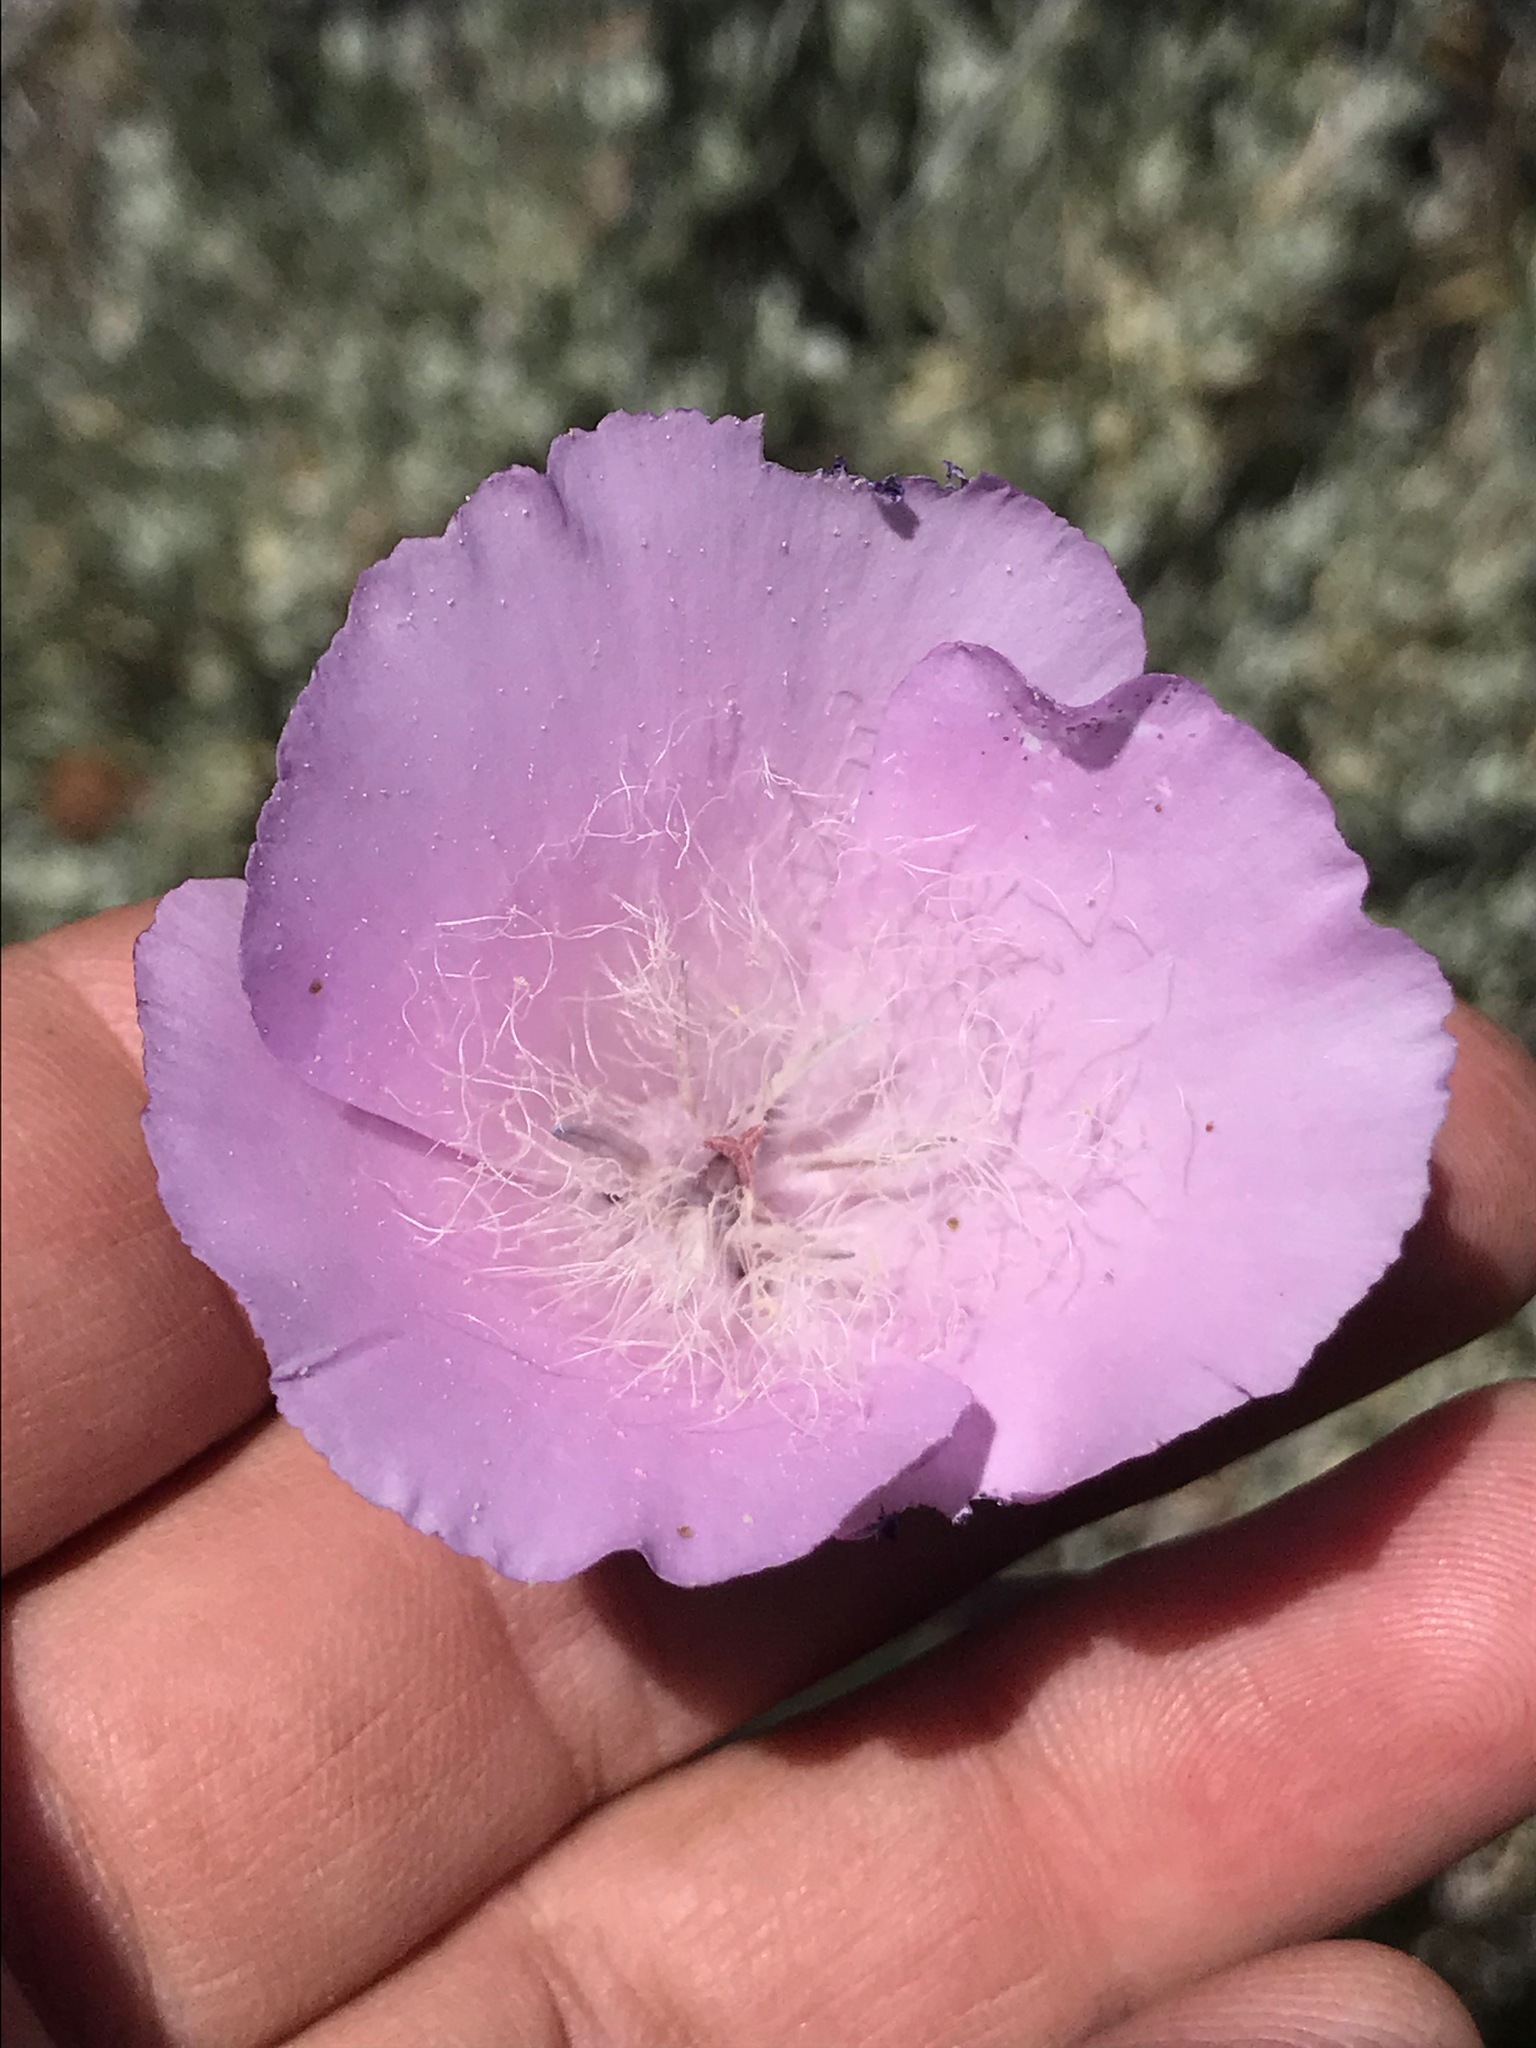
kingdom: Plantae
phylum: Tracheophyta
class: Liliopsida
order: Liliales
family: Liliaceae
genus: Calochortus
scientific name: Calochortus splendens
